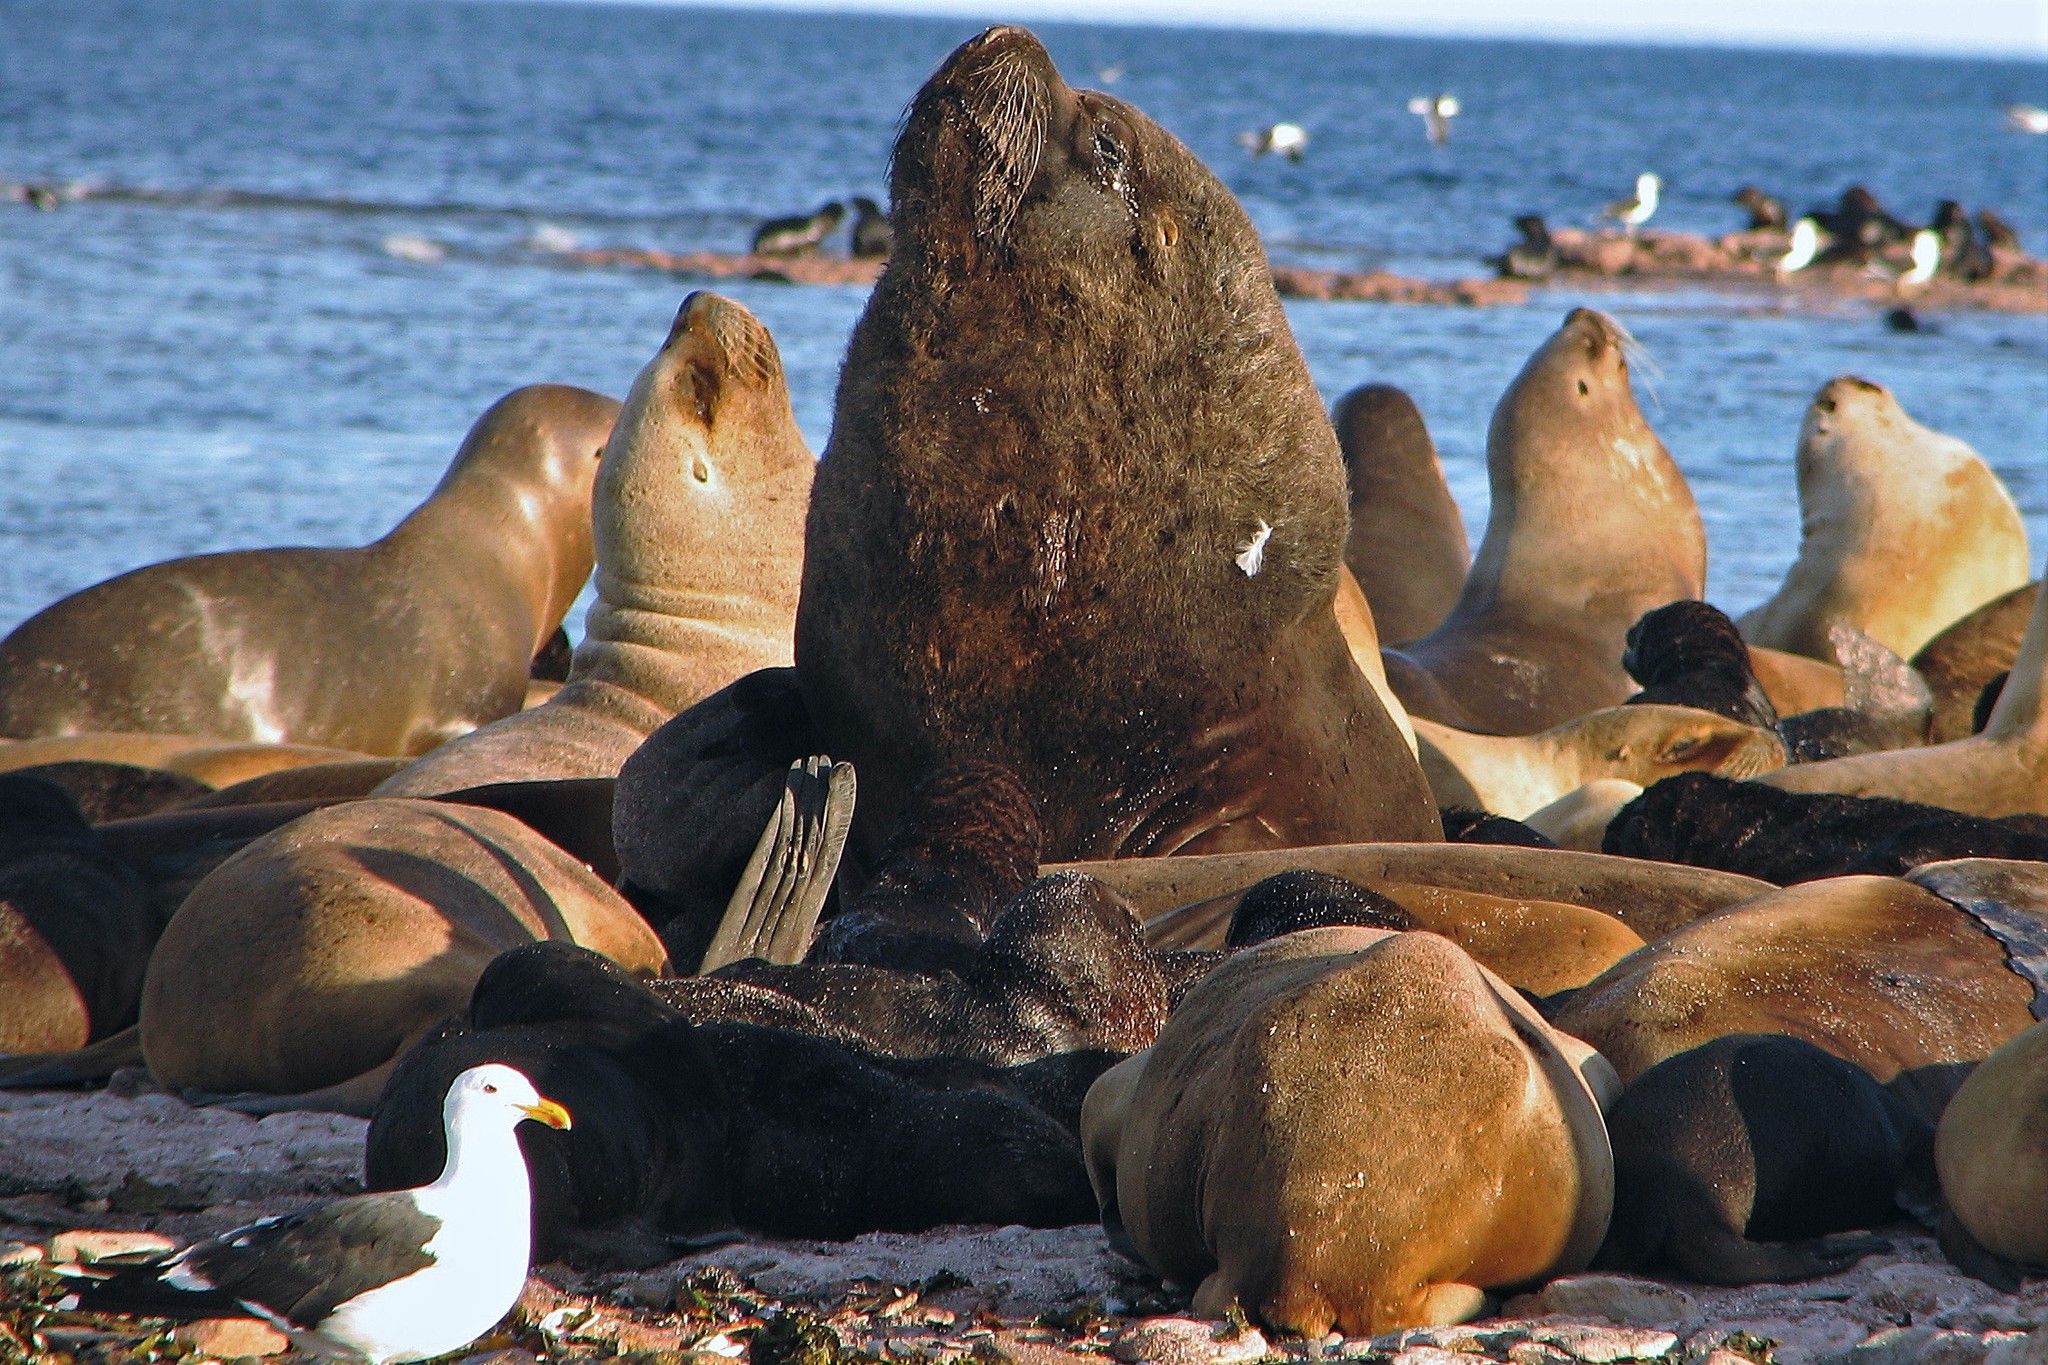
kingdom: Animalia
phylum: Chordata
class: Mammalia
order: Carnivora
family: Otariidae
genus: Otaria
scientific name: Otaria byronia
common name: South american sea lion
